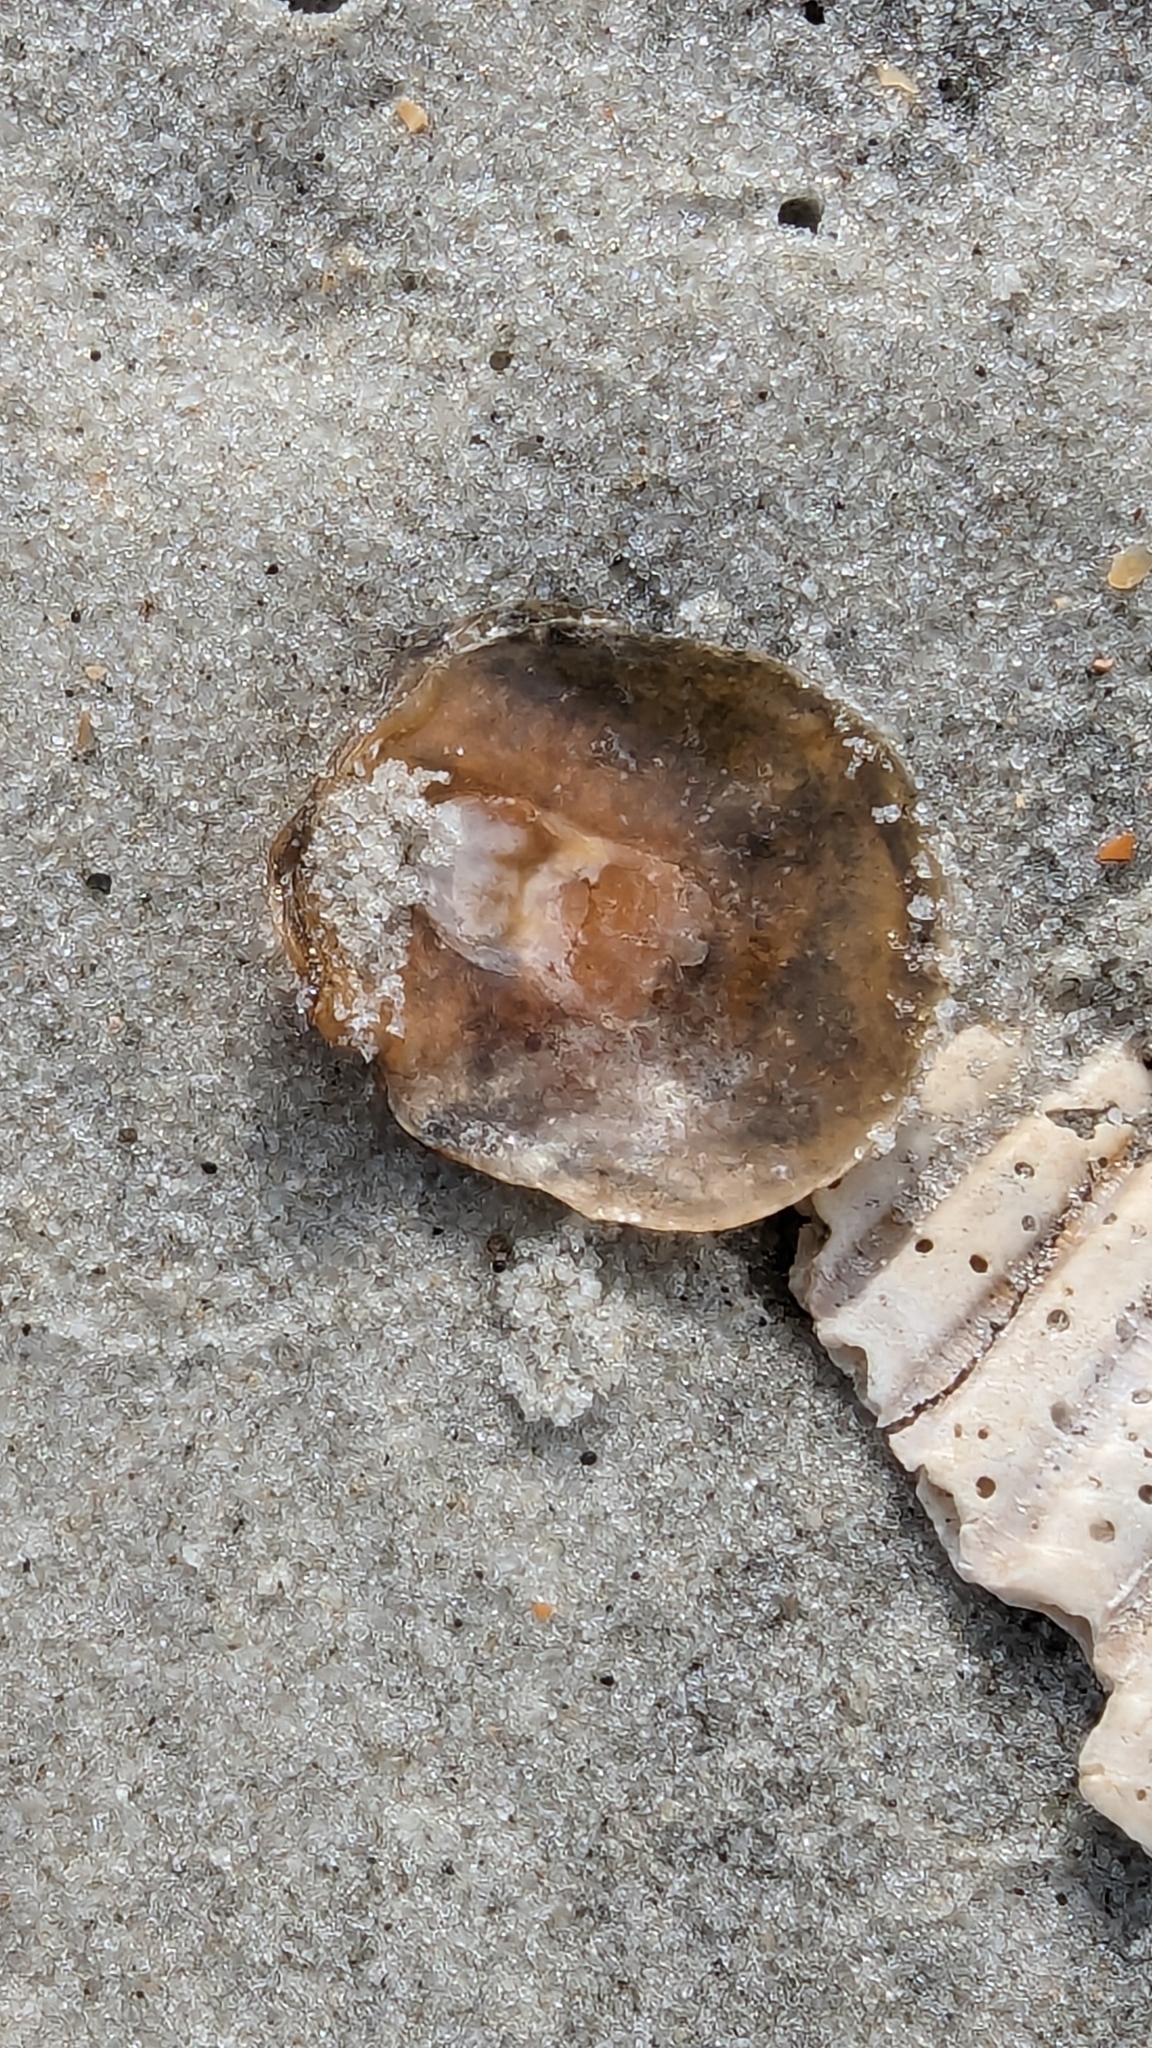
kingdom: Animalia
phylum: Mollusca
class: Bivalvia
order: Pectinida
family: Anomiidae
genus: Anomia
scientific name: Anomia simplex
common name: Common jingle shell
